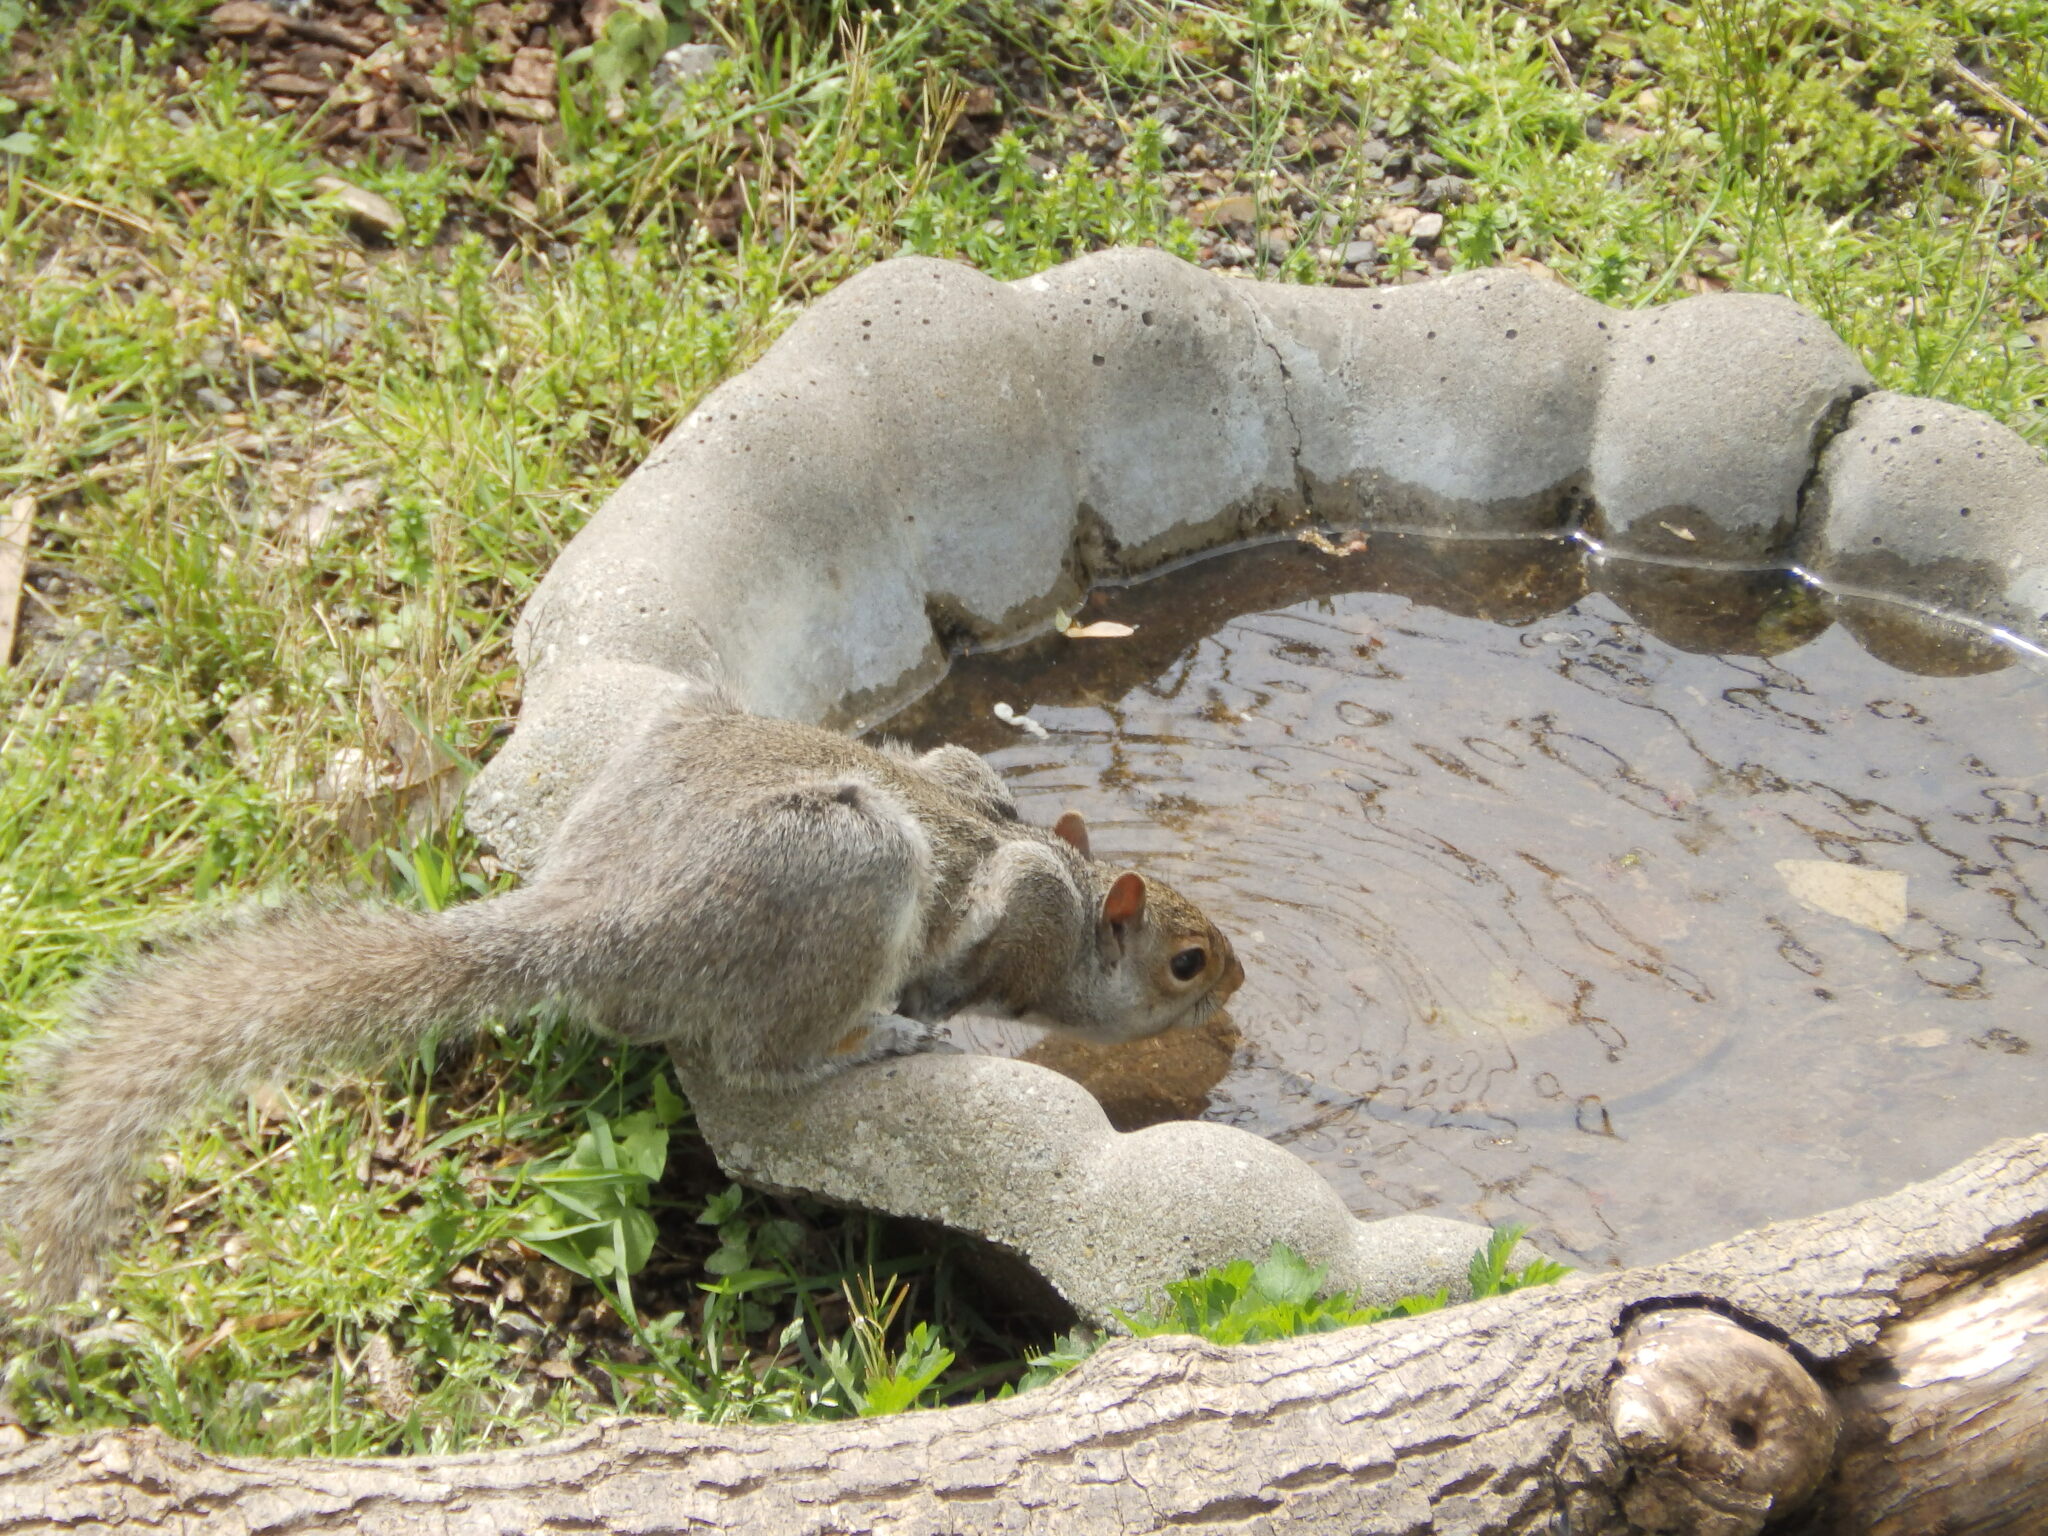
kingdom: Animalia
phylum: Chordata
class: Mammalia
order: Rodentia
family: Sciuridae
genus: Sciurus
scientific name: Sciurus carolinensis
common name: Eastern gray squirrel
